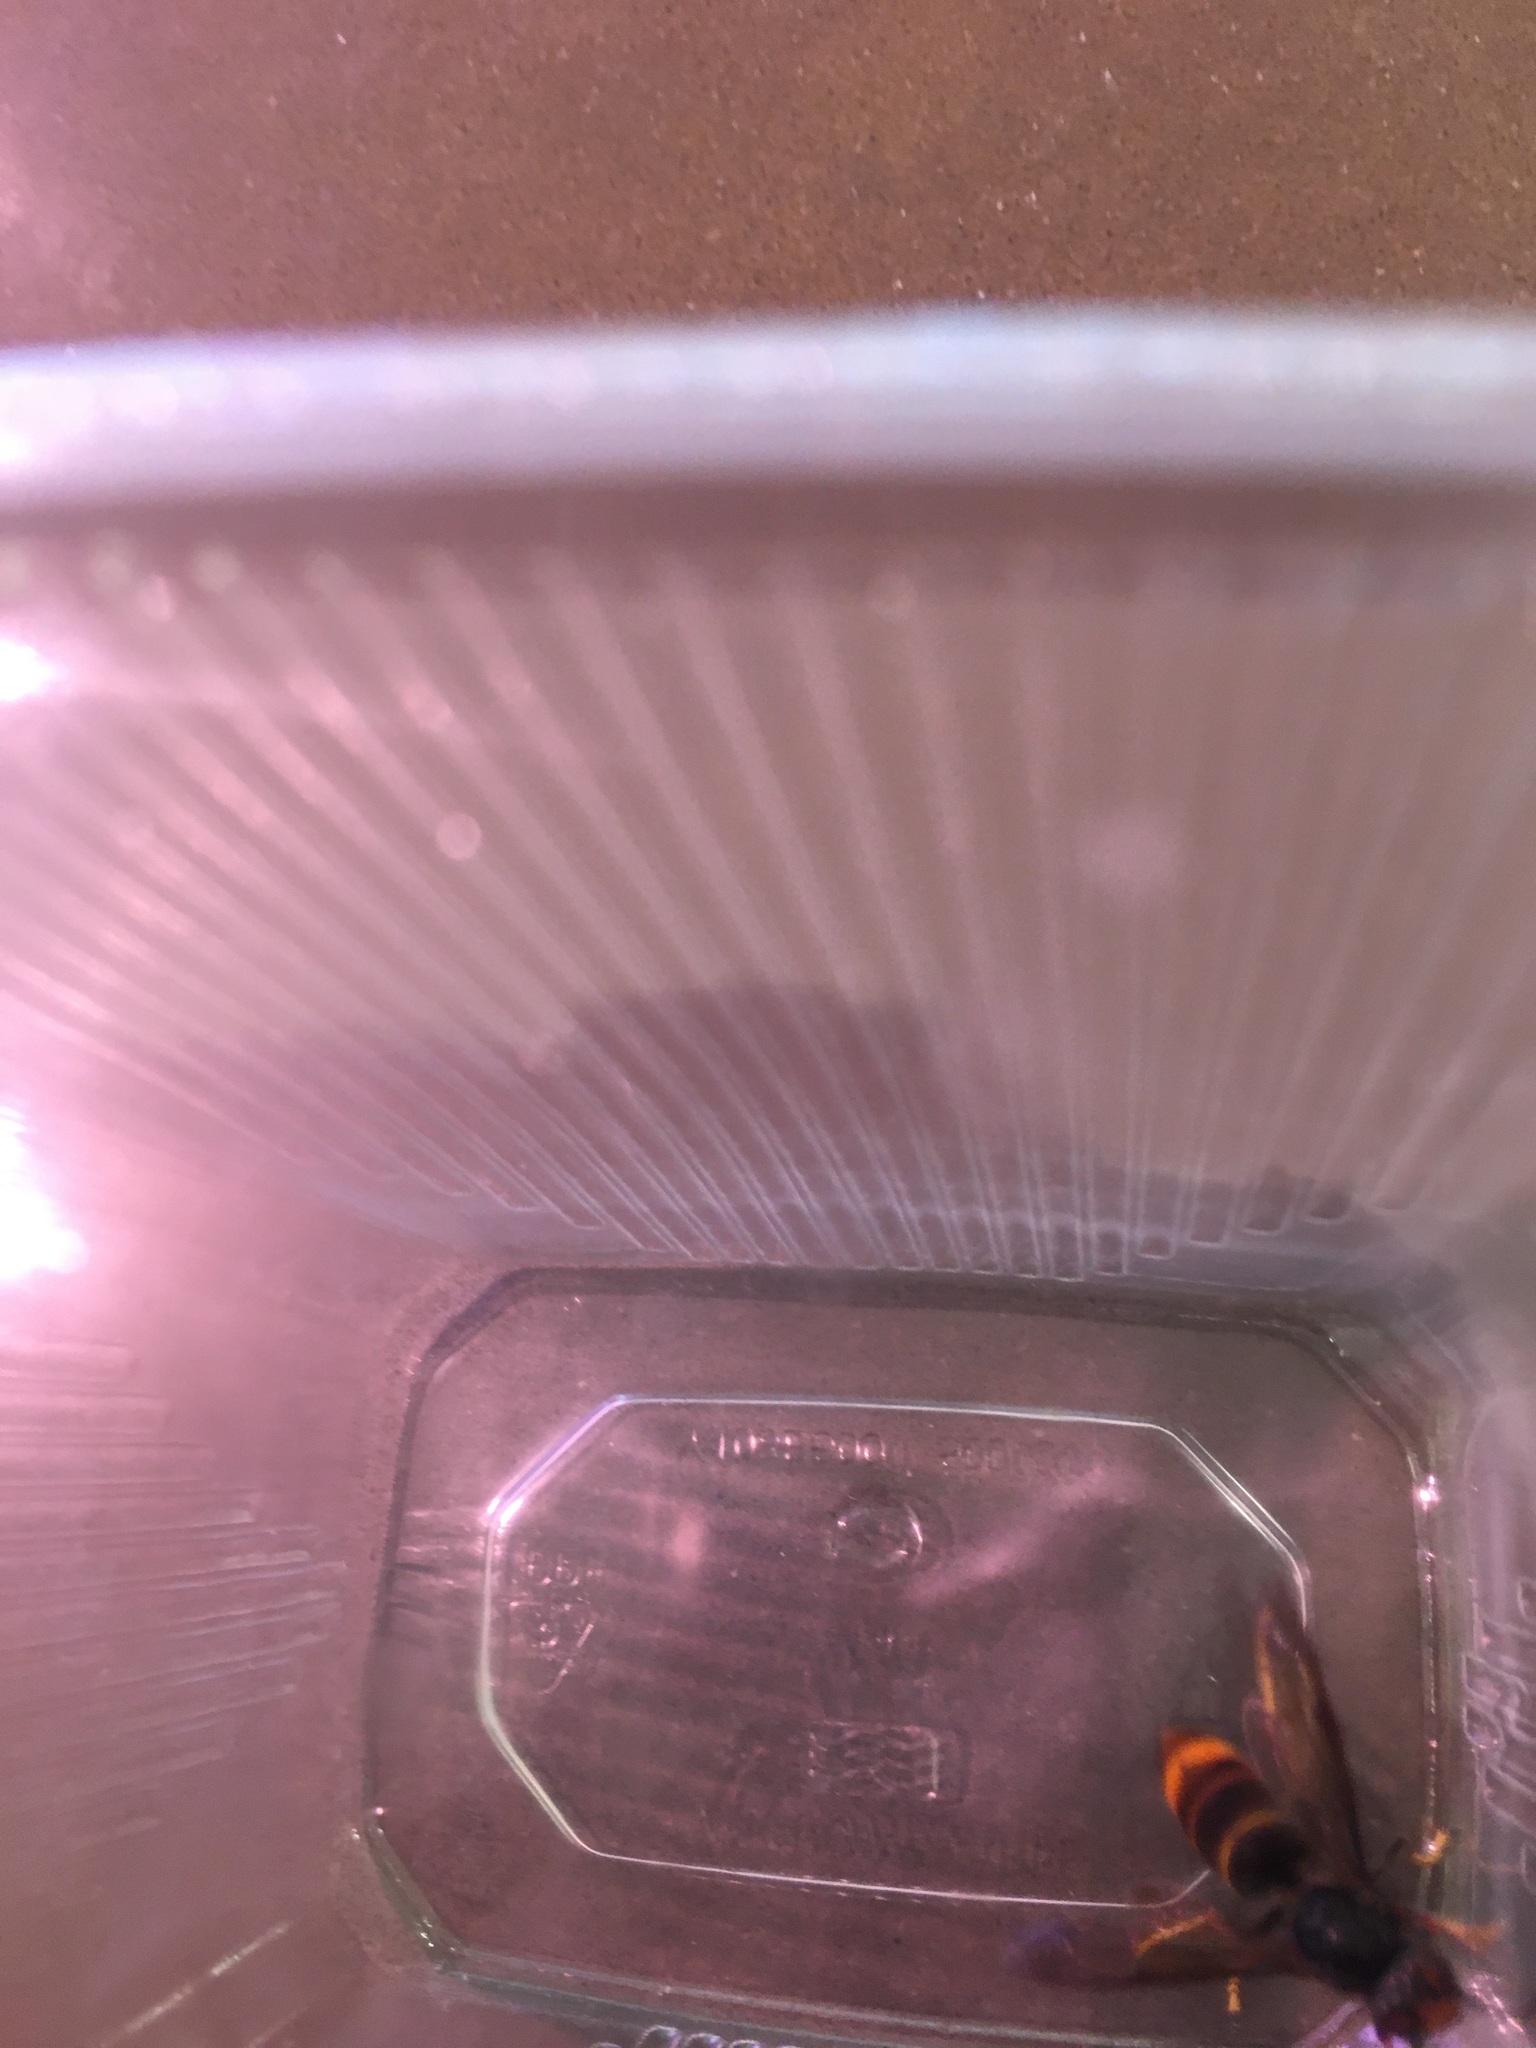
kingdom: Animalia
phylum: Arthropoda
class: Insecta
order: Hymenoptera
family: Vespidae
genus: Vespa
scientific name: Vespa velutina
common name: Asian hornet
